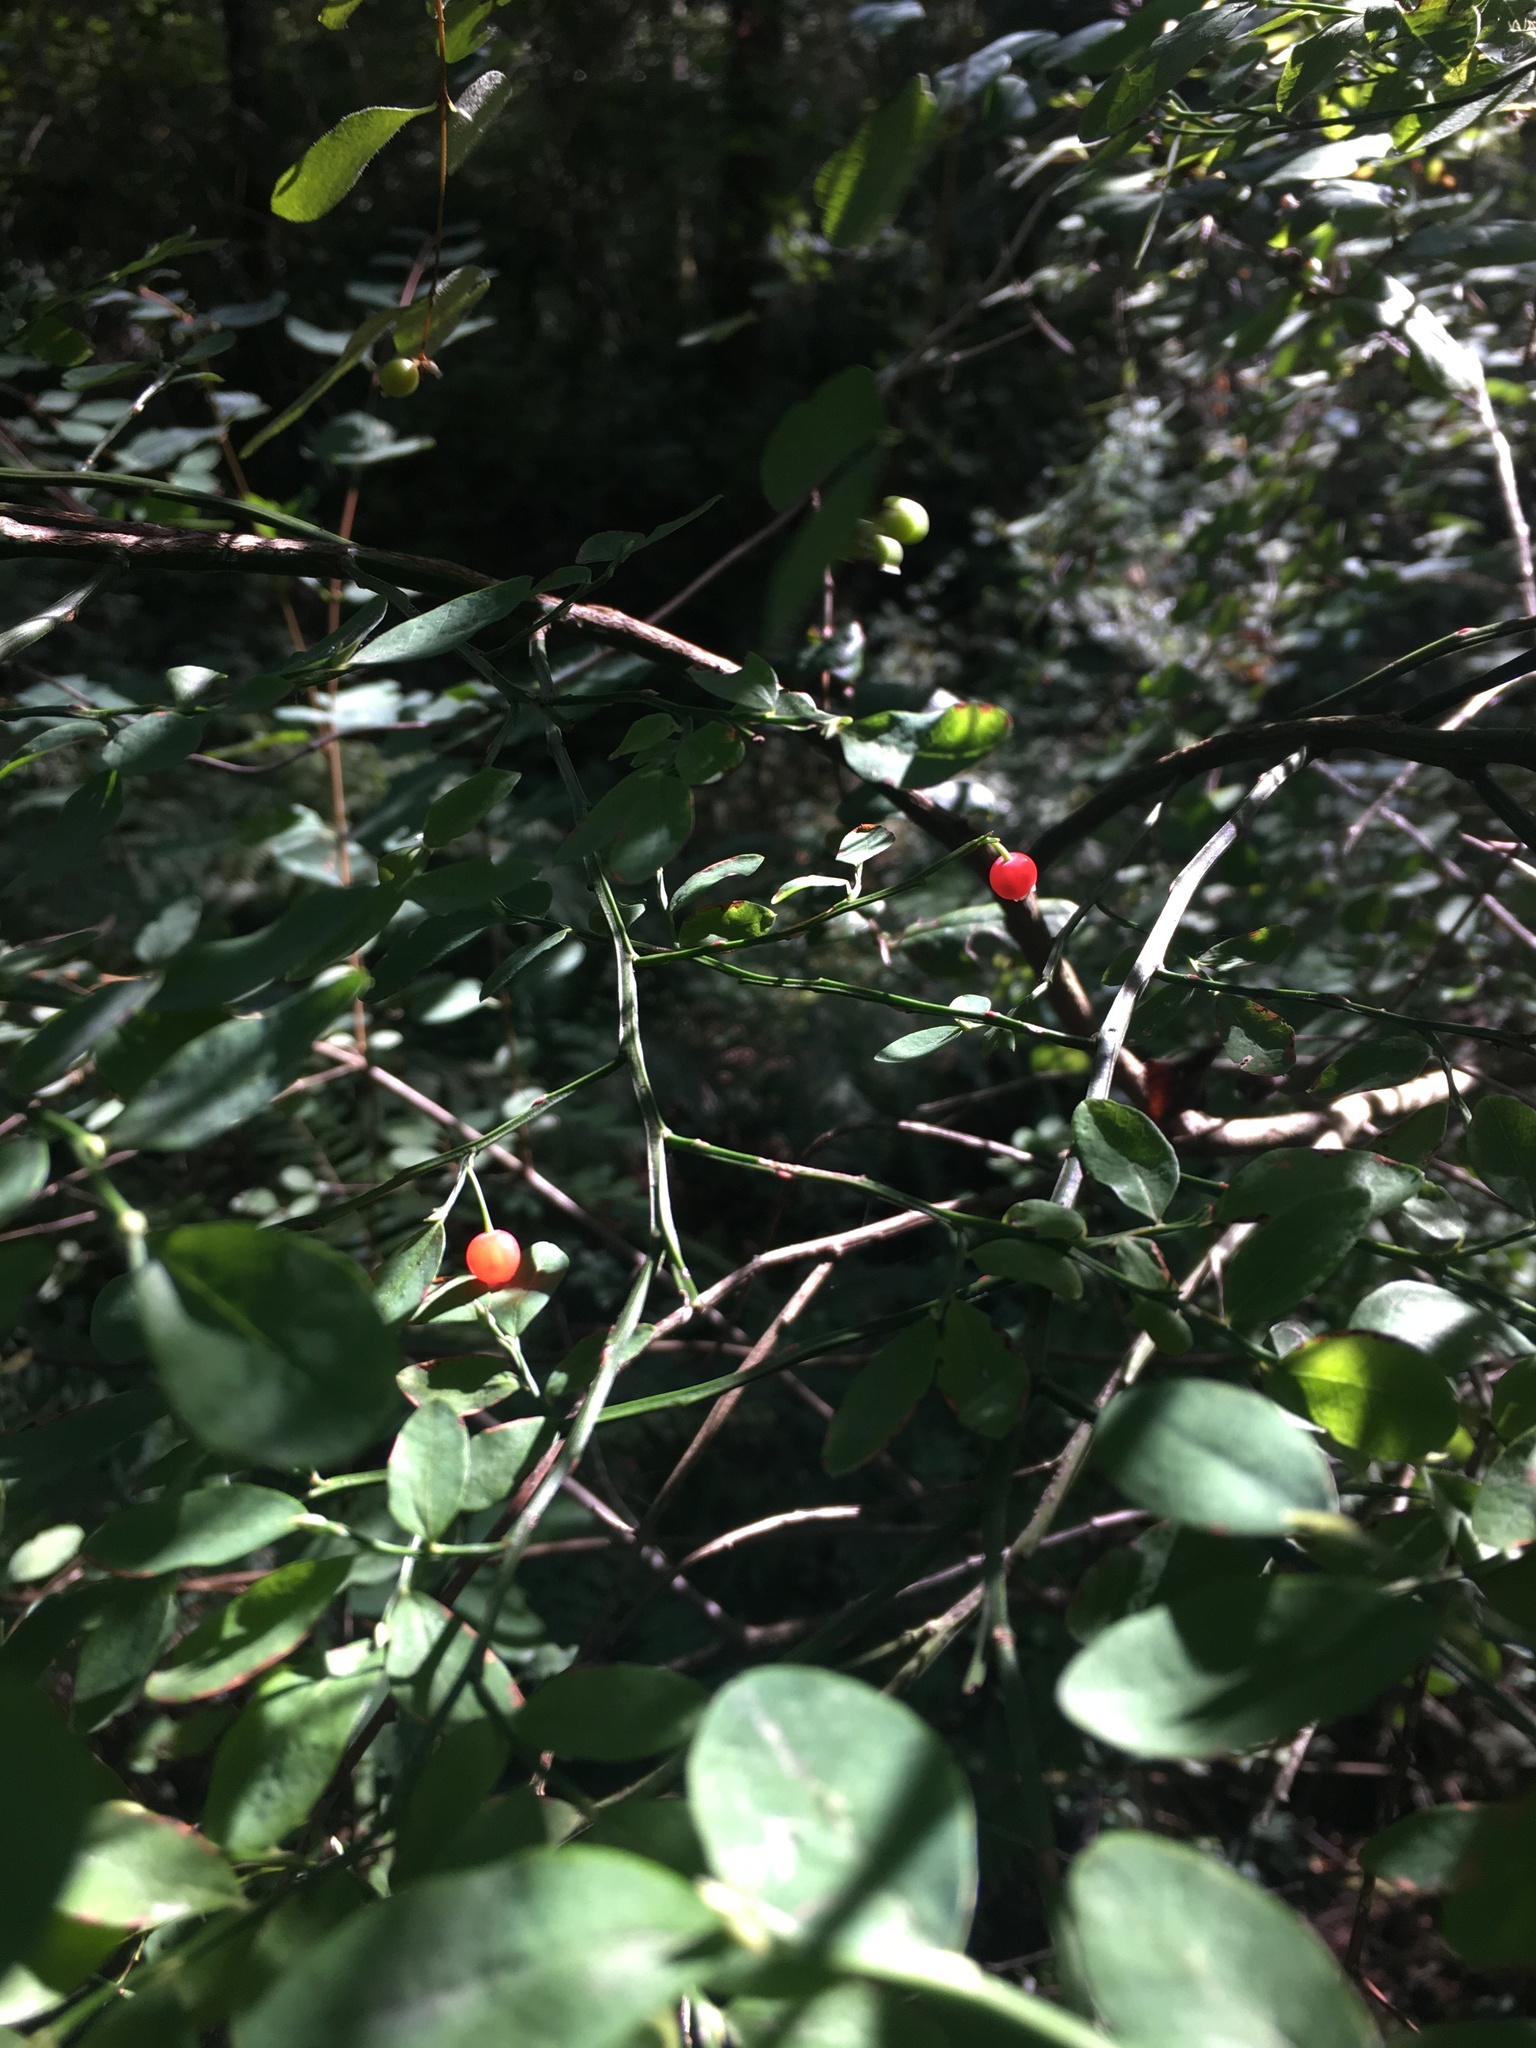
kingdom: Plantae
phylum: Tracheophyta
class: Magnoliopsida
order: Ericales
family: Ericaceae
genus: Vaccinium
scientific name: Vaccinium parvifolium
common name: Red-huckleberry
